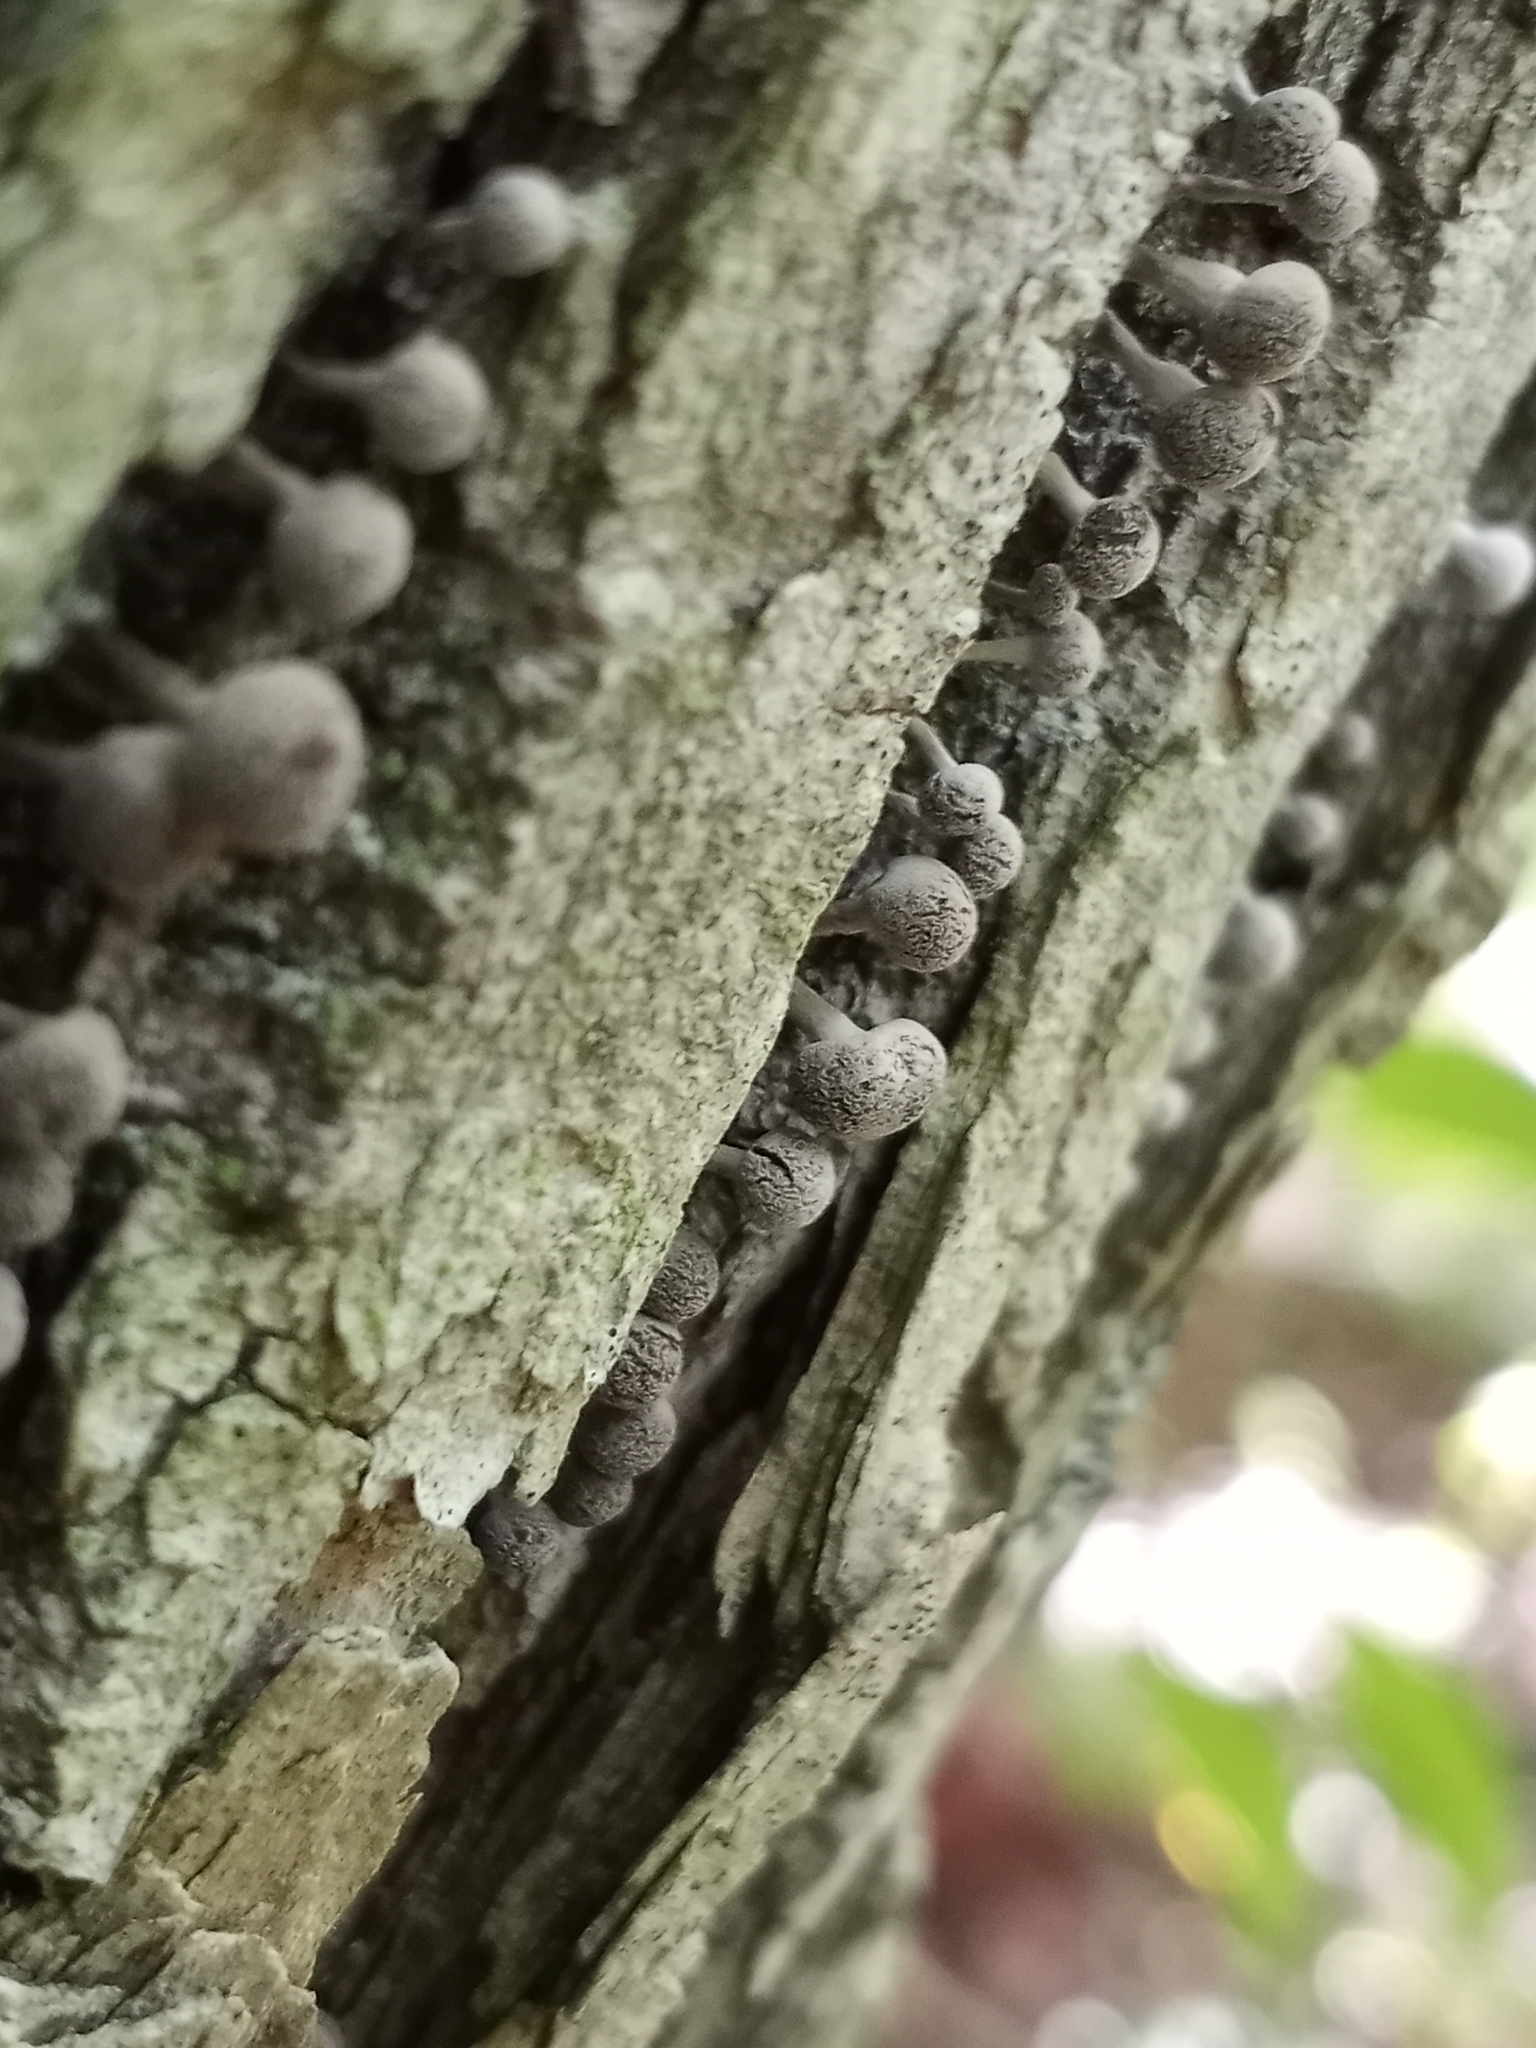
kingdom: Fungi
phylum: Basidiomycota
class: Atractiellomycetes
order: Atractiellales
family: Phleogenaceae
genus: Phleogena
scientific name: Phleogena faginea
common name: Fenugreek stalkball
